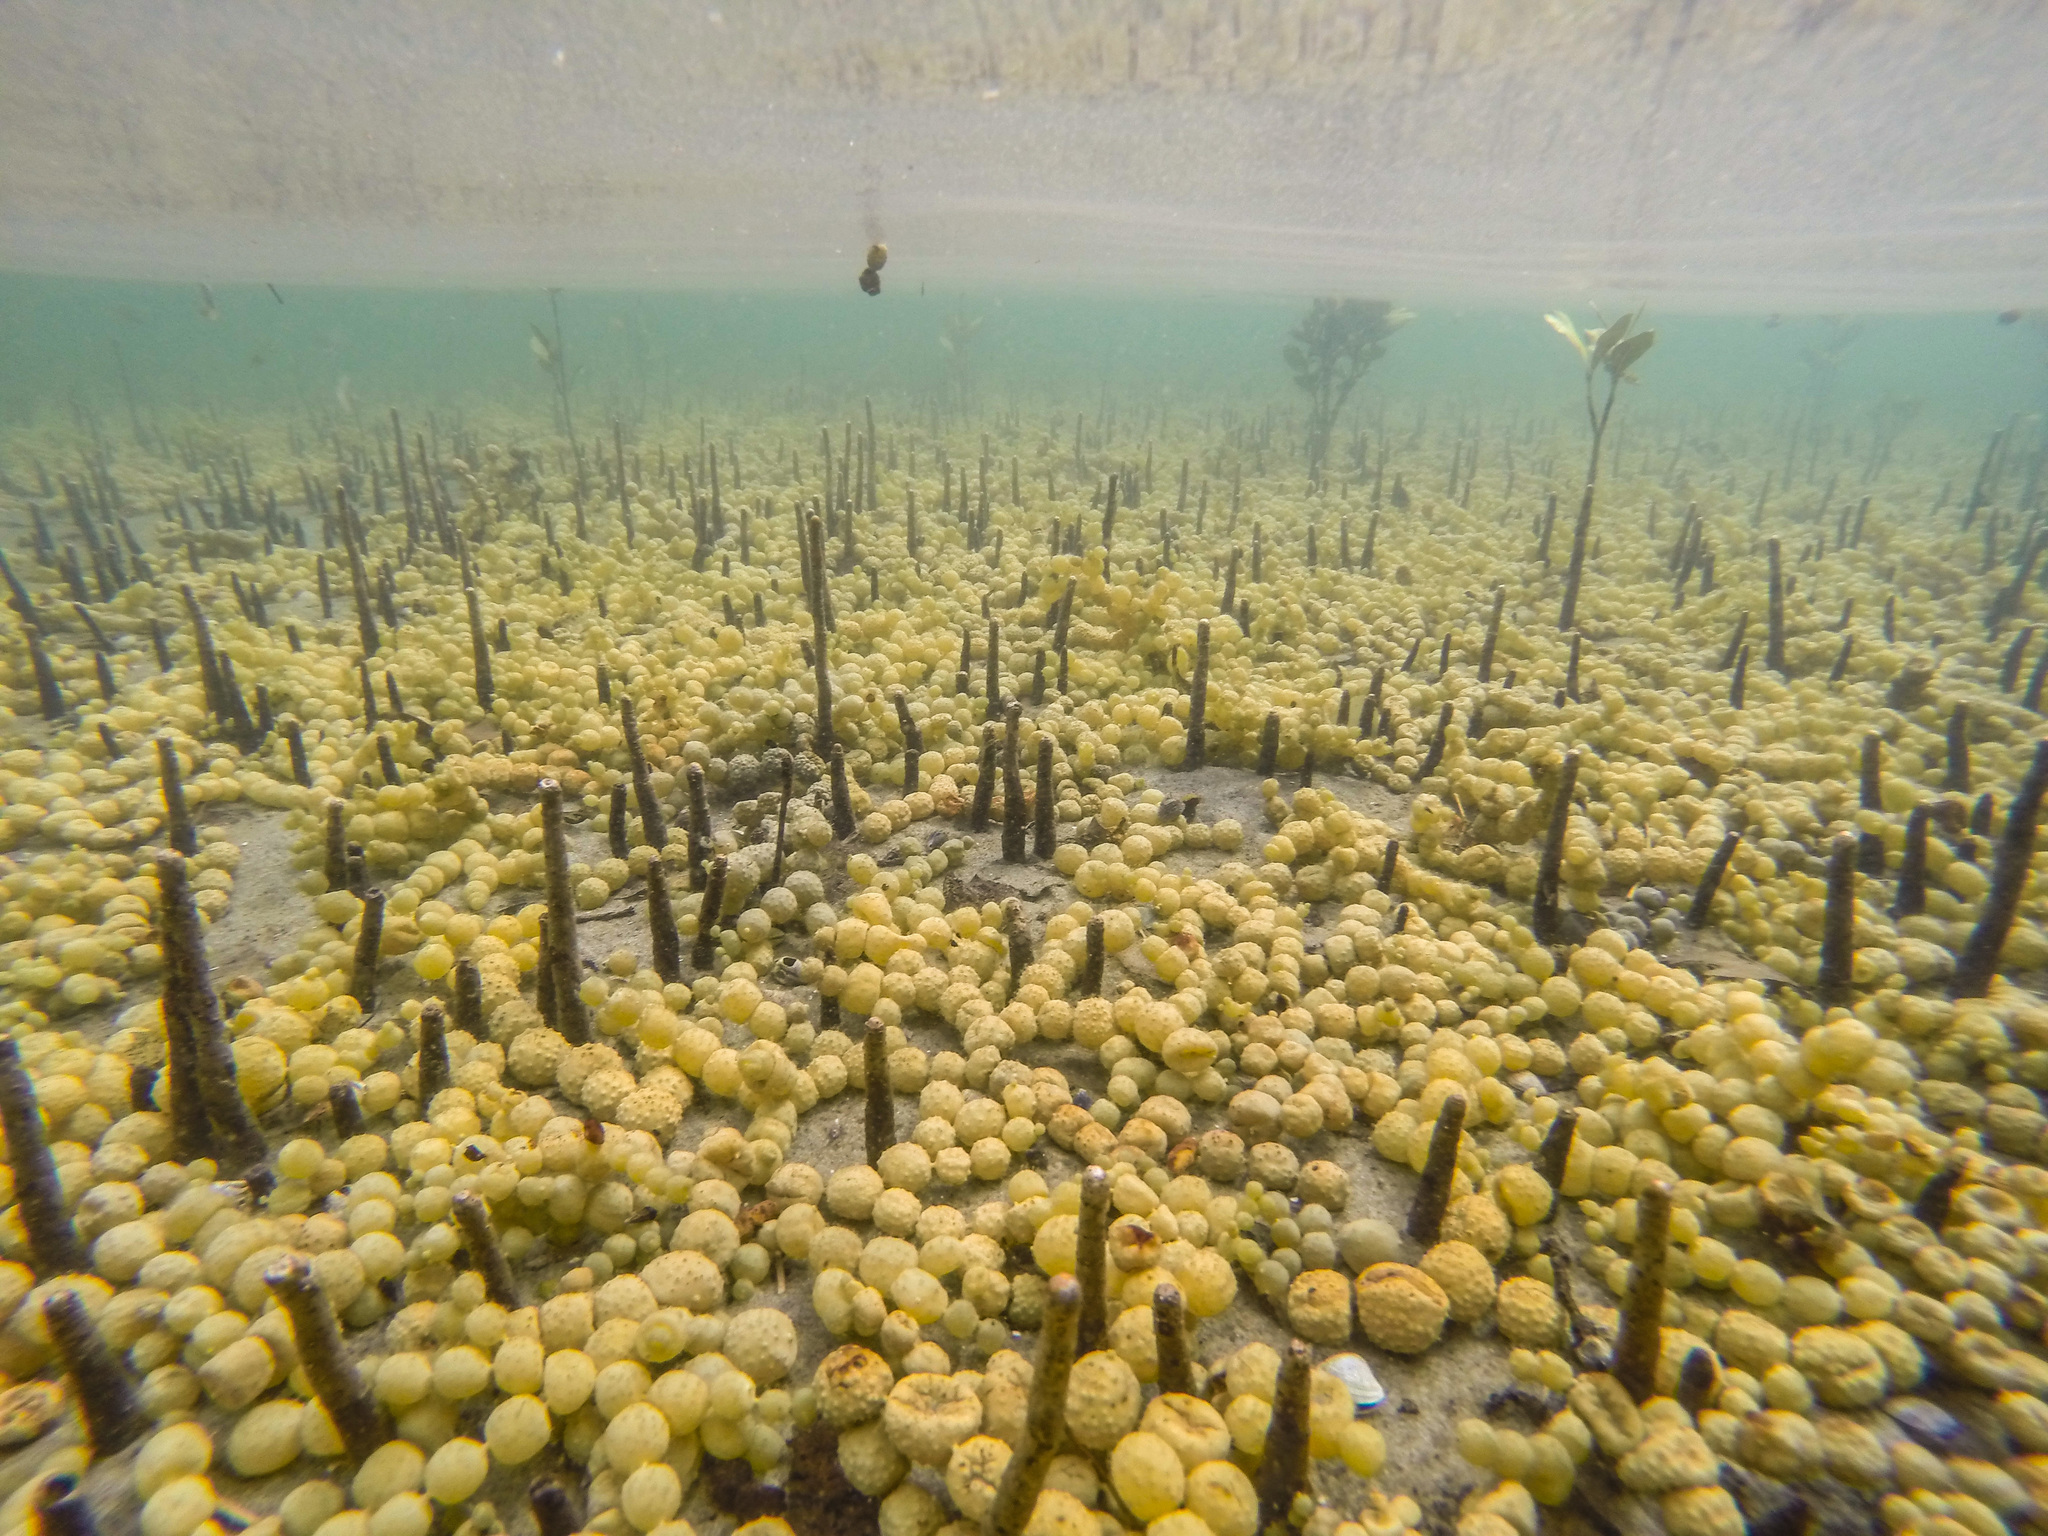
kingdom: Chromista
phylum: Ochrophyta
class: Phaeophyceae
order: Fucales
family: Hormosiraceae
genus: Hormosira
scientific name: Hormosira banksii
